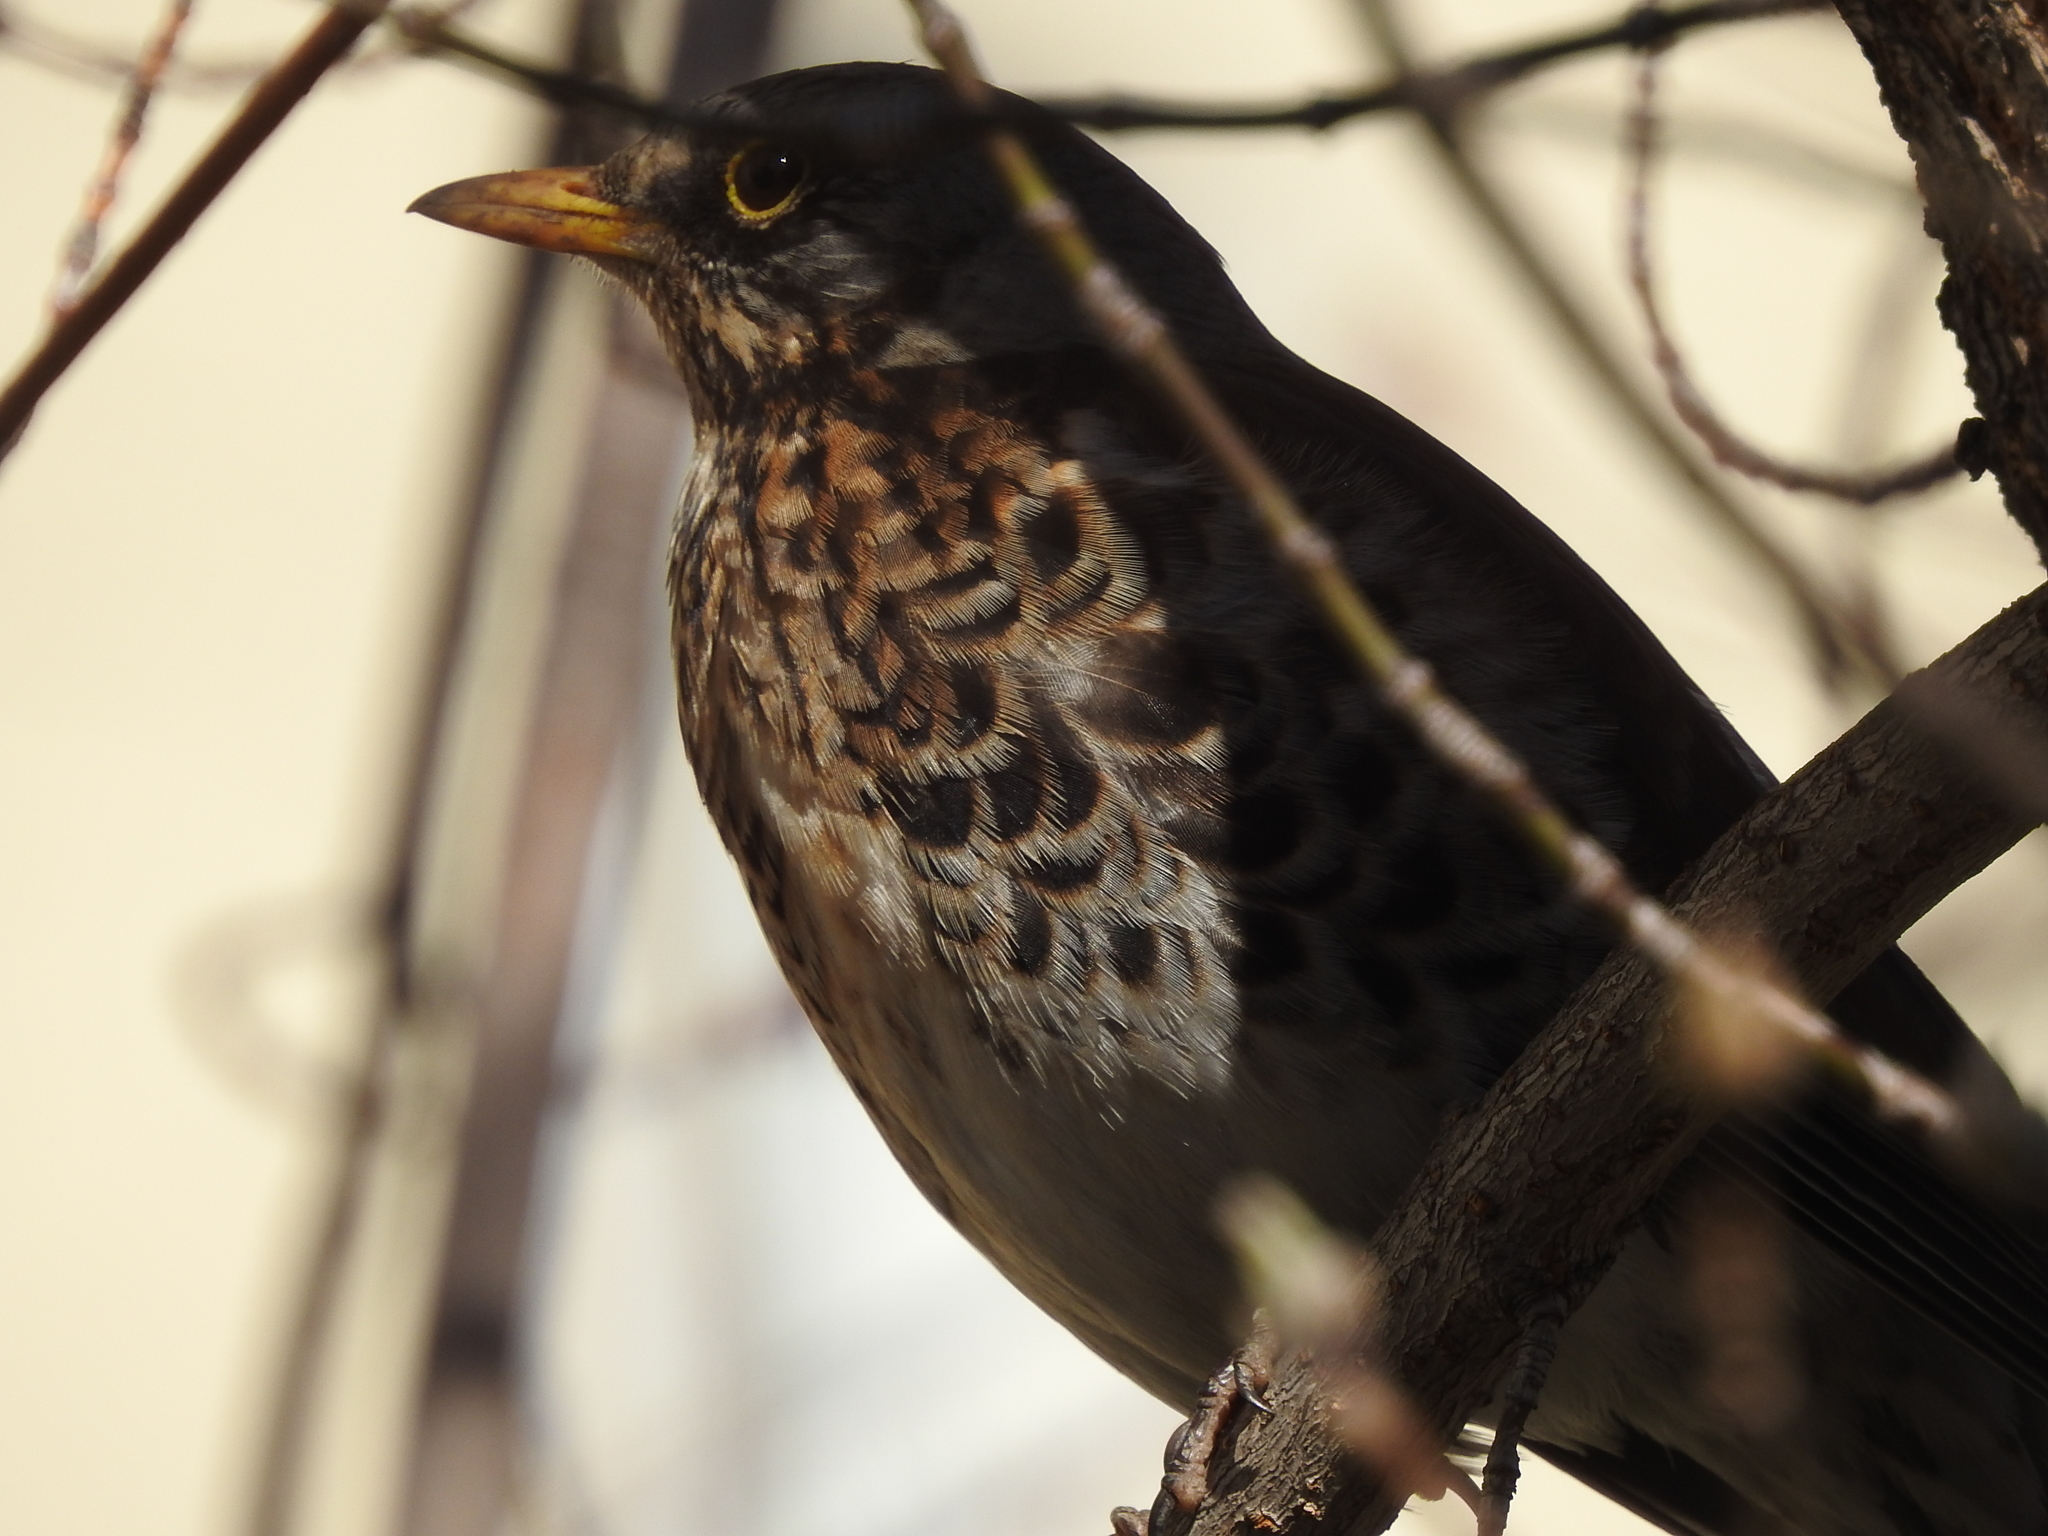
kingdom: Animalia
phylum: Chordata
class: Aves
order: Passeriformes
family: Turdidae
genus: Turdus
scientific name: Turdus pilaris
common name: Fieldfare
